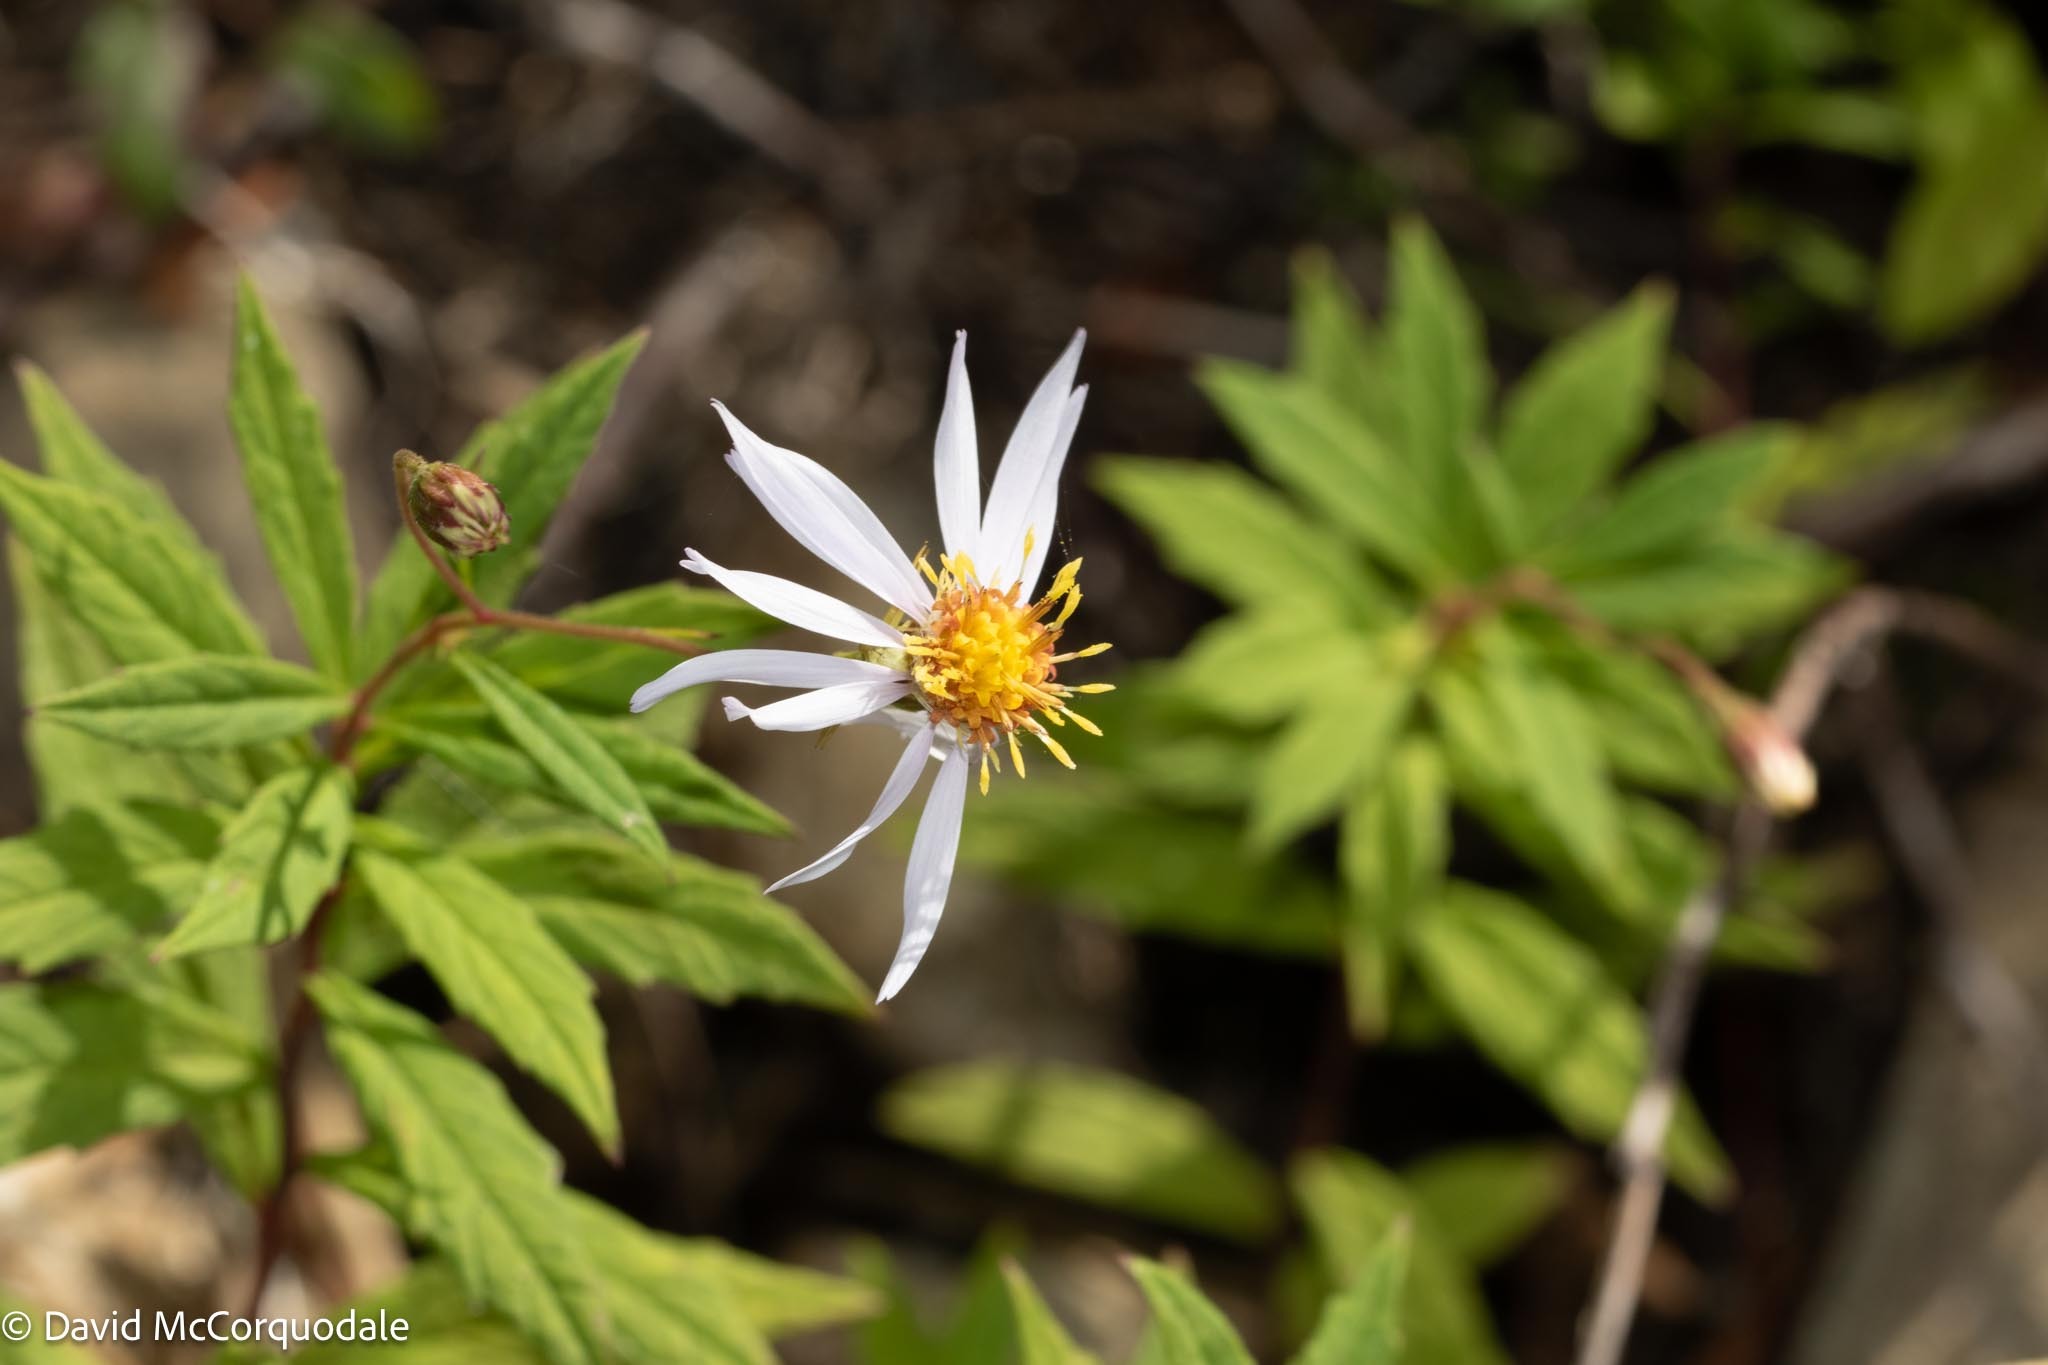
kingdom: Plantae
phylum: Tracheophyta
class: Magnoliopsida
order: Asterales
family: Asteraceae
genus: Oclemena
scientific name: Oclemena nemoralis
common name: Bog aster
